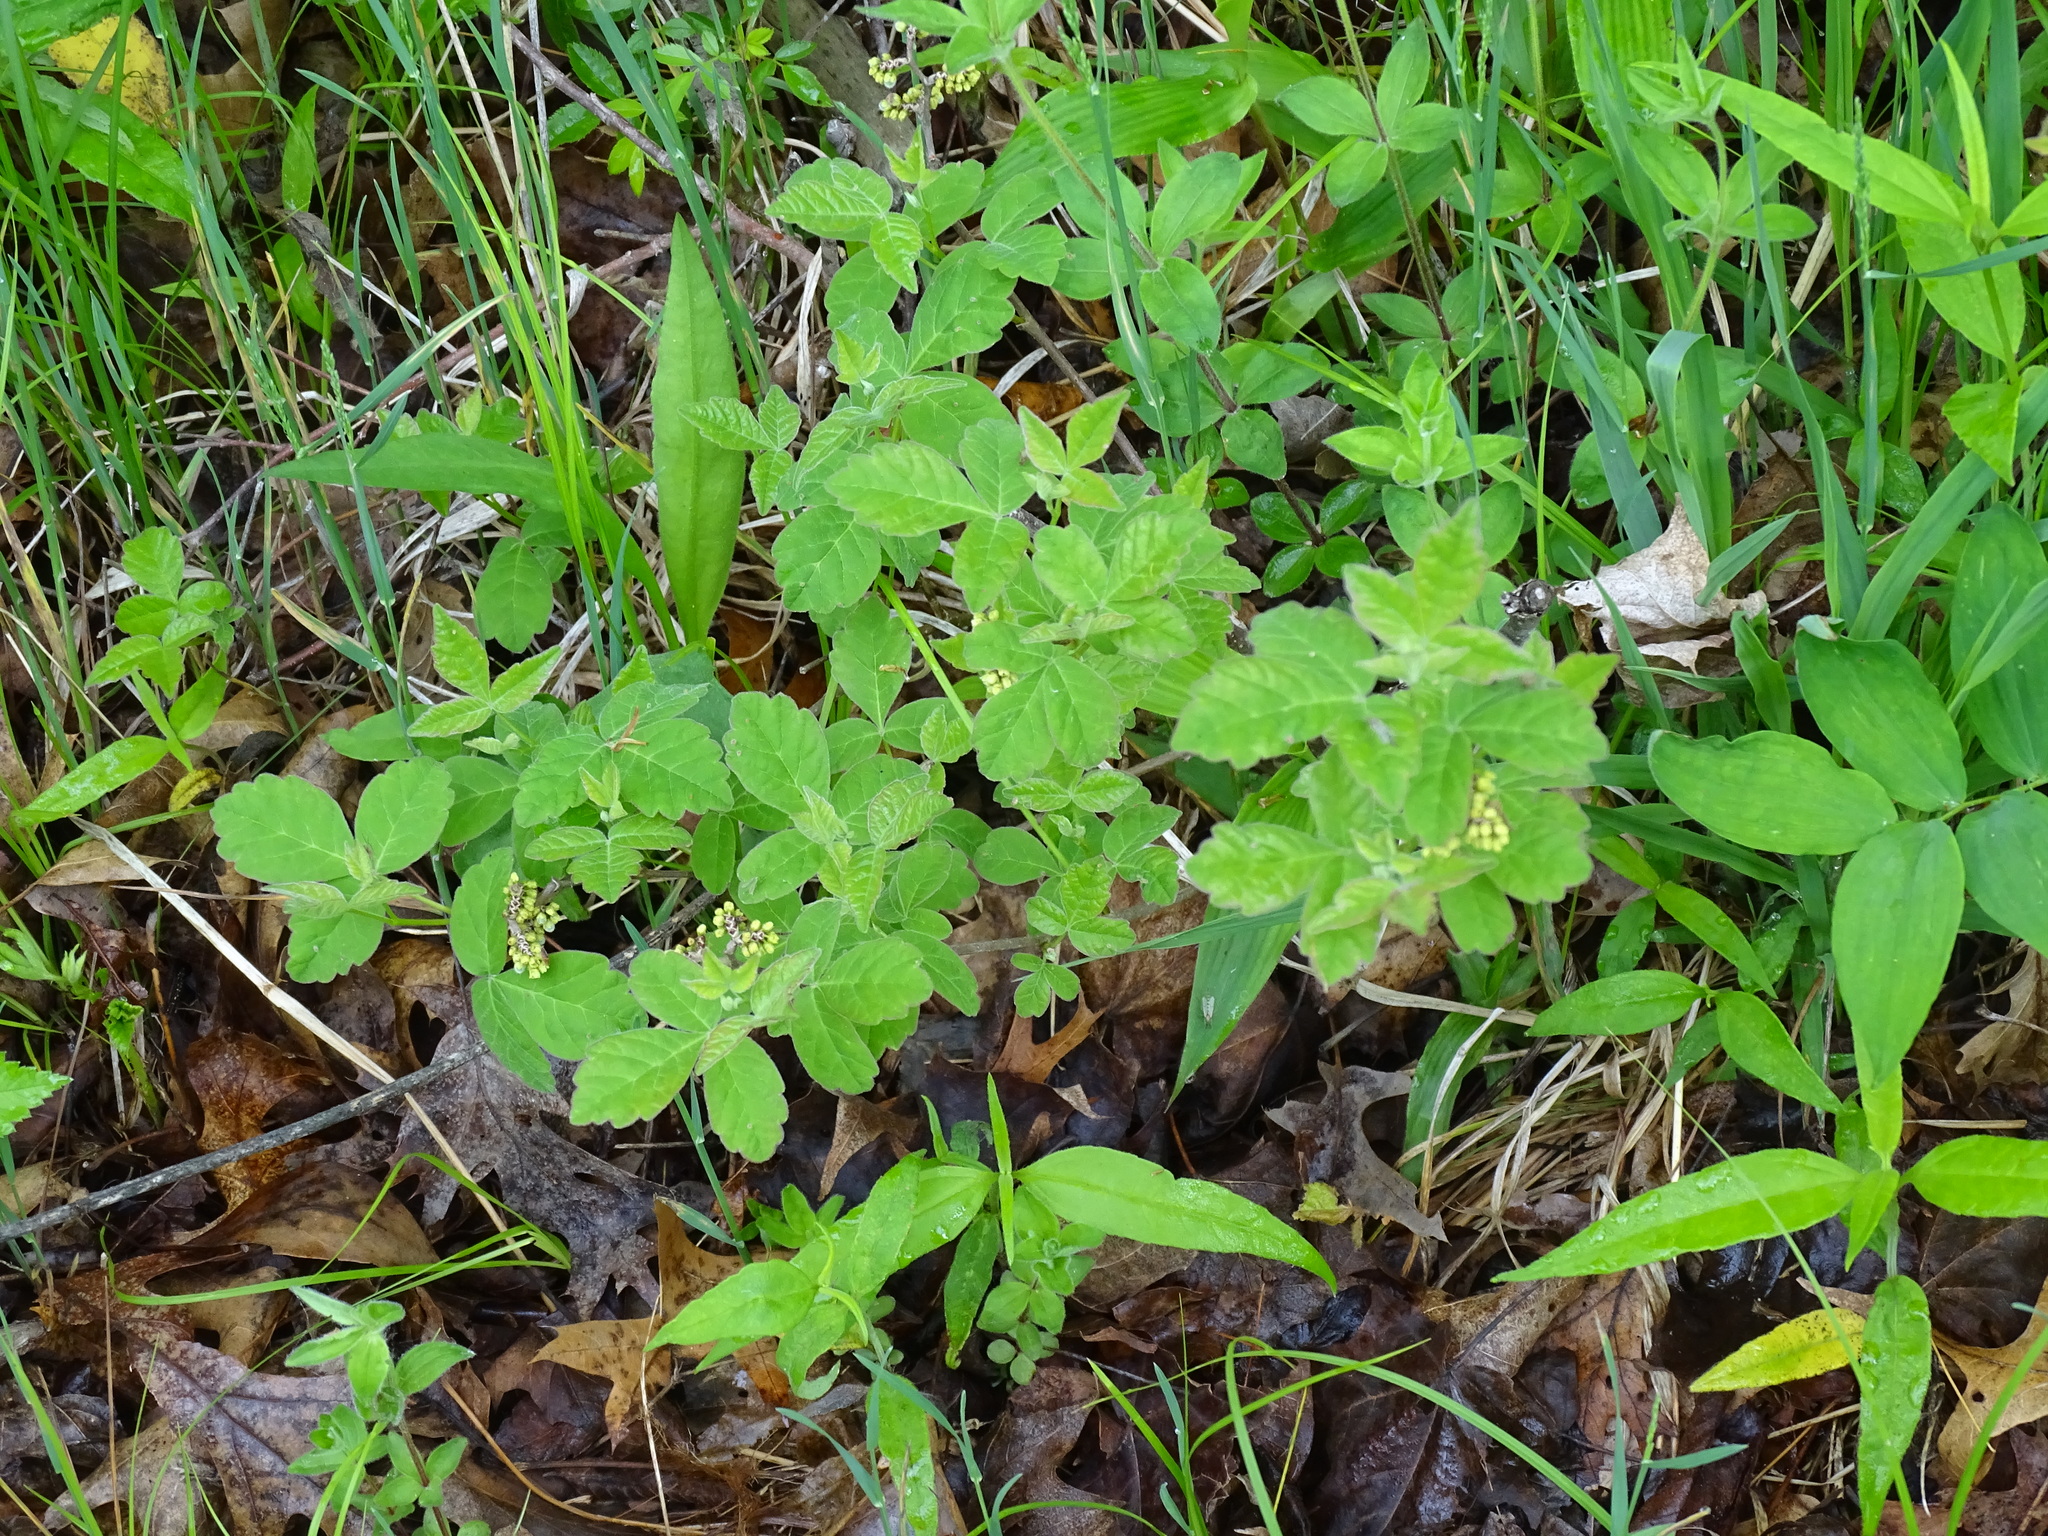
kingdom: Plantae
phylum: Tracheophyta
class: Magnoliopsida
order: Sapindales
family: Anacardiaceae
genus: Rhus
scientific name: Rhus aromatica
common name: Aromatic sumac
